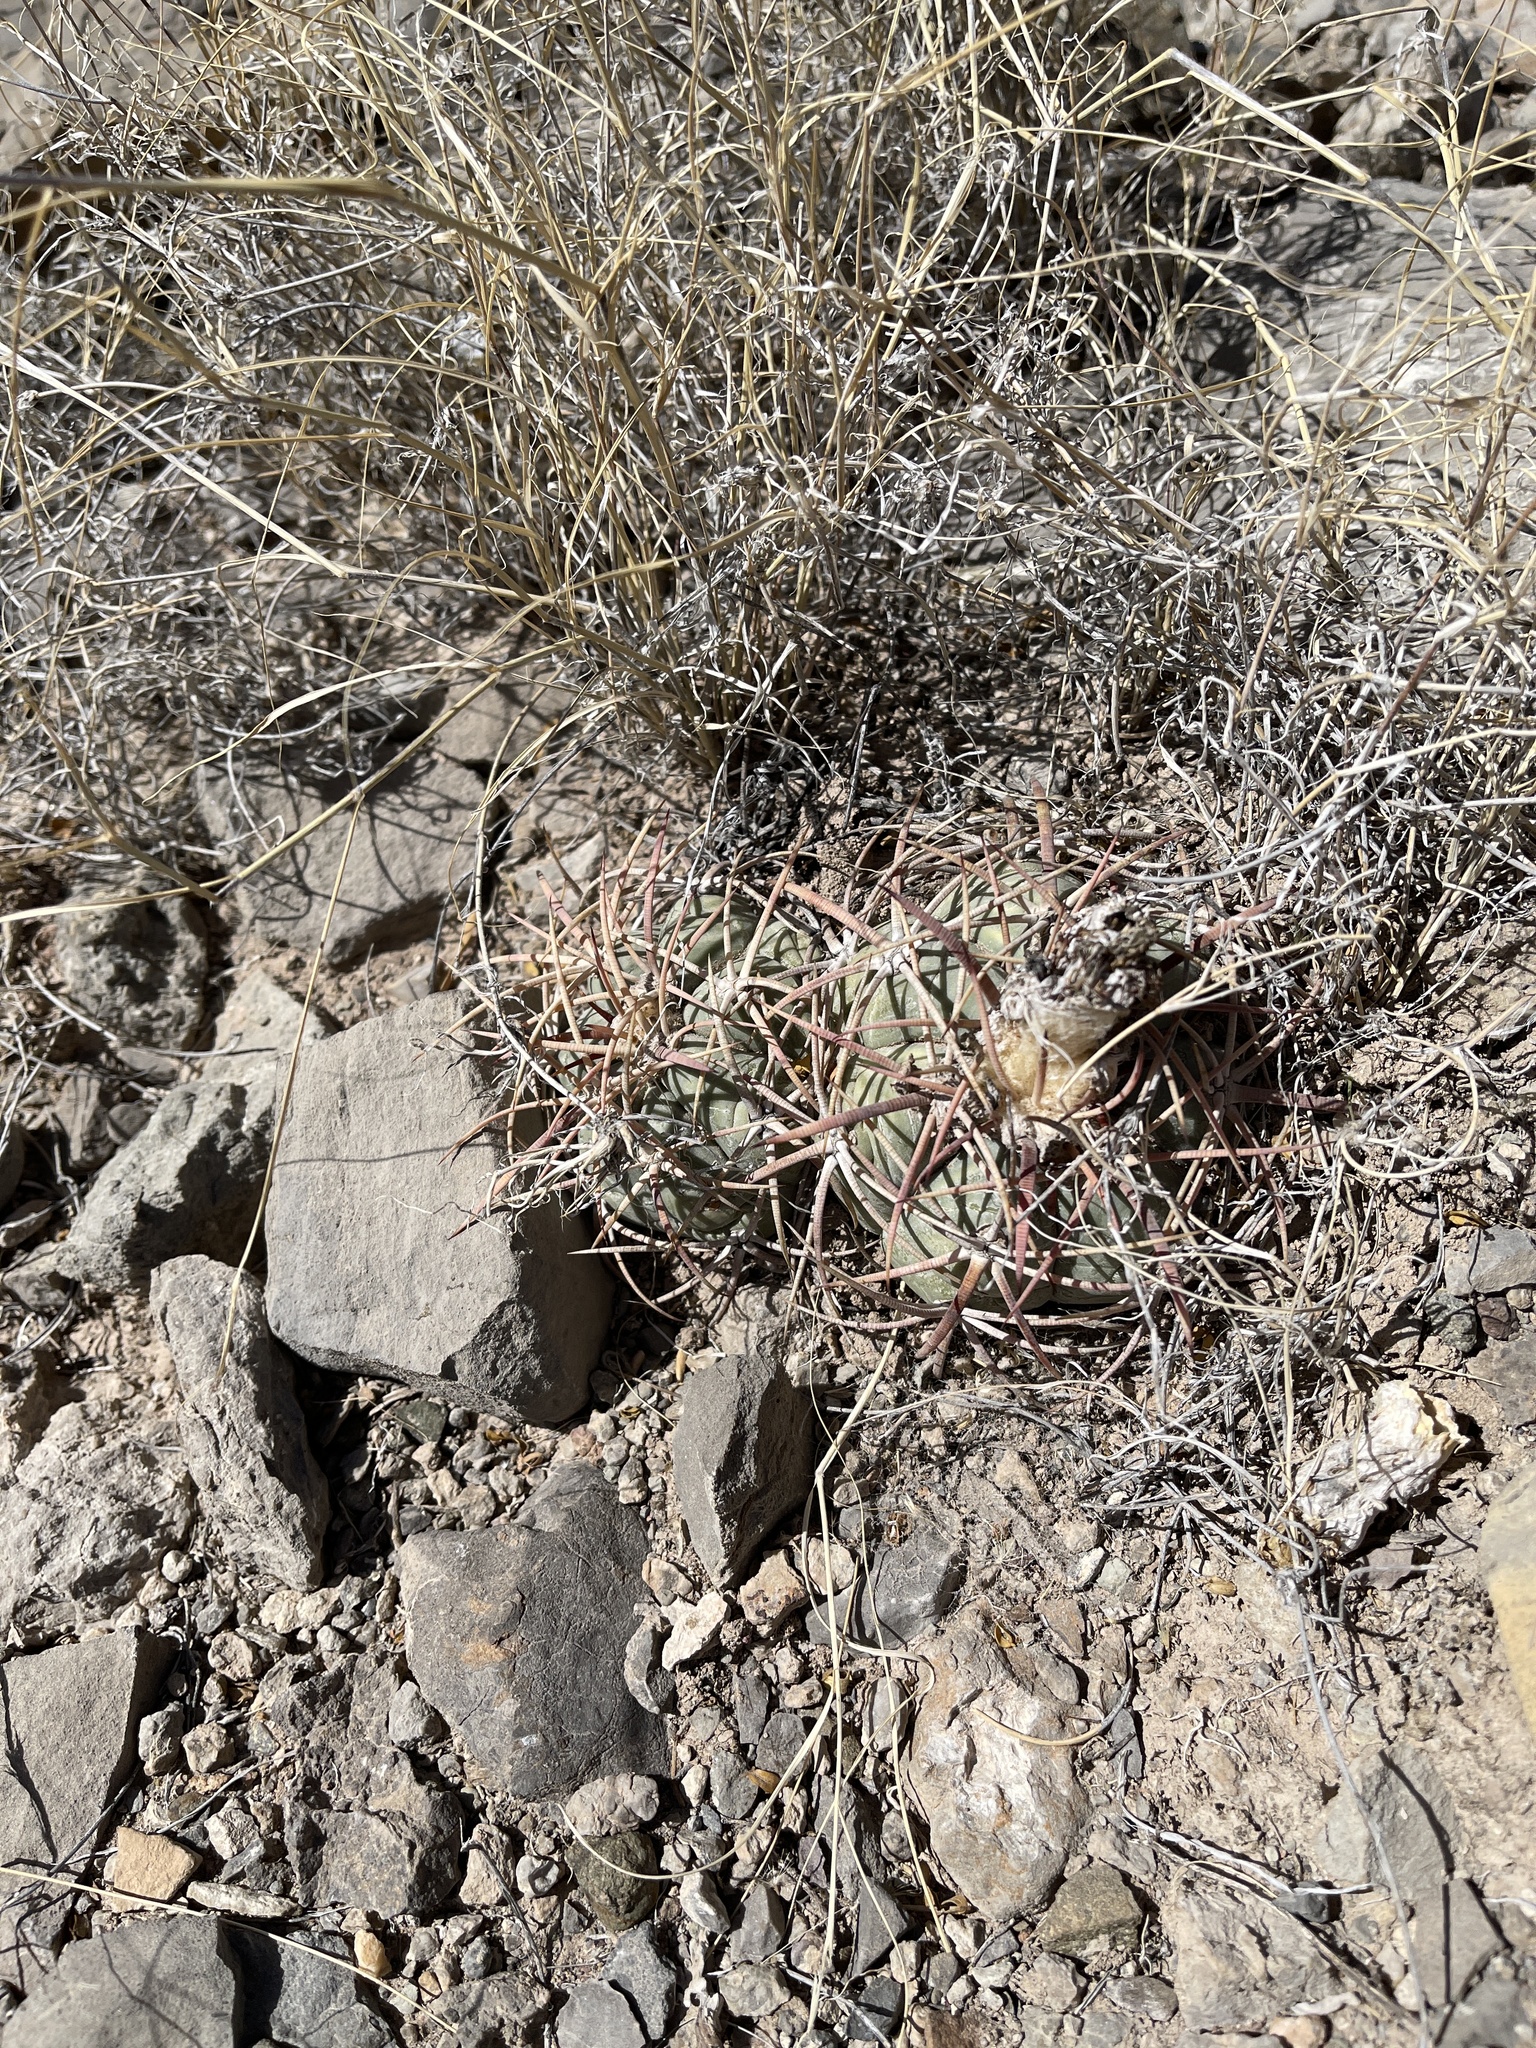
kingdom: Plantae
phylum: Tracheophyta
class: Magnoliopsida
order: Caryophyllales
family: Cactaceae
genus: Echinocactus
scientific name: Echinocactus horizonthalonius
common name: Devilshead
